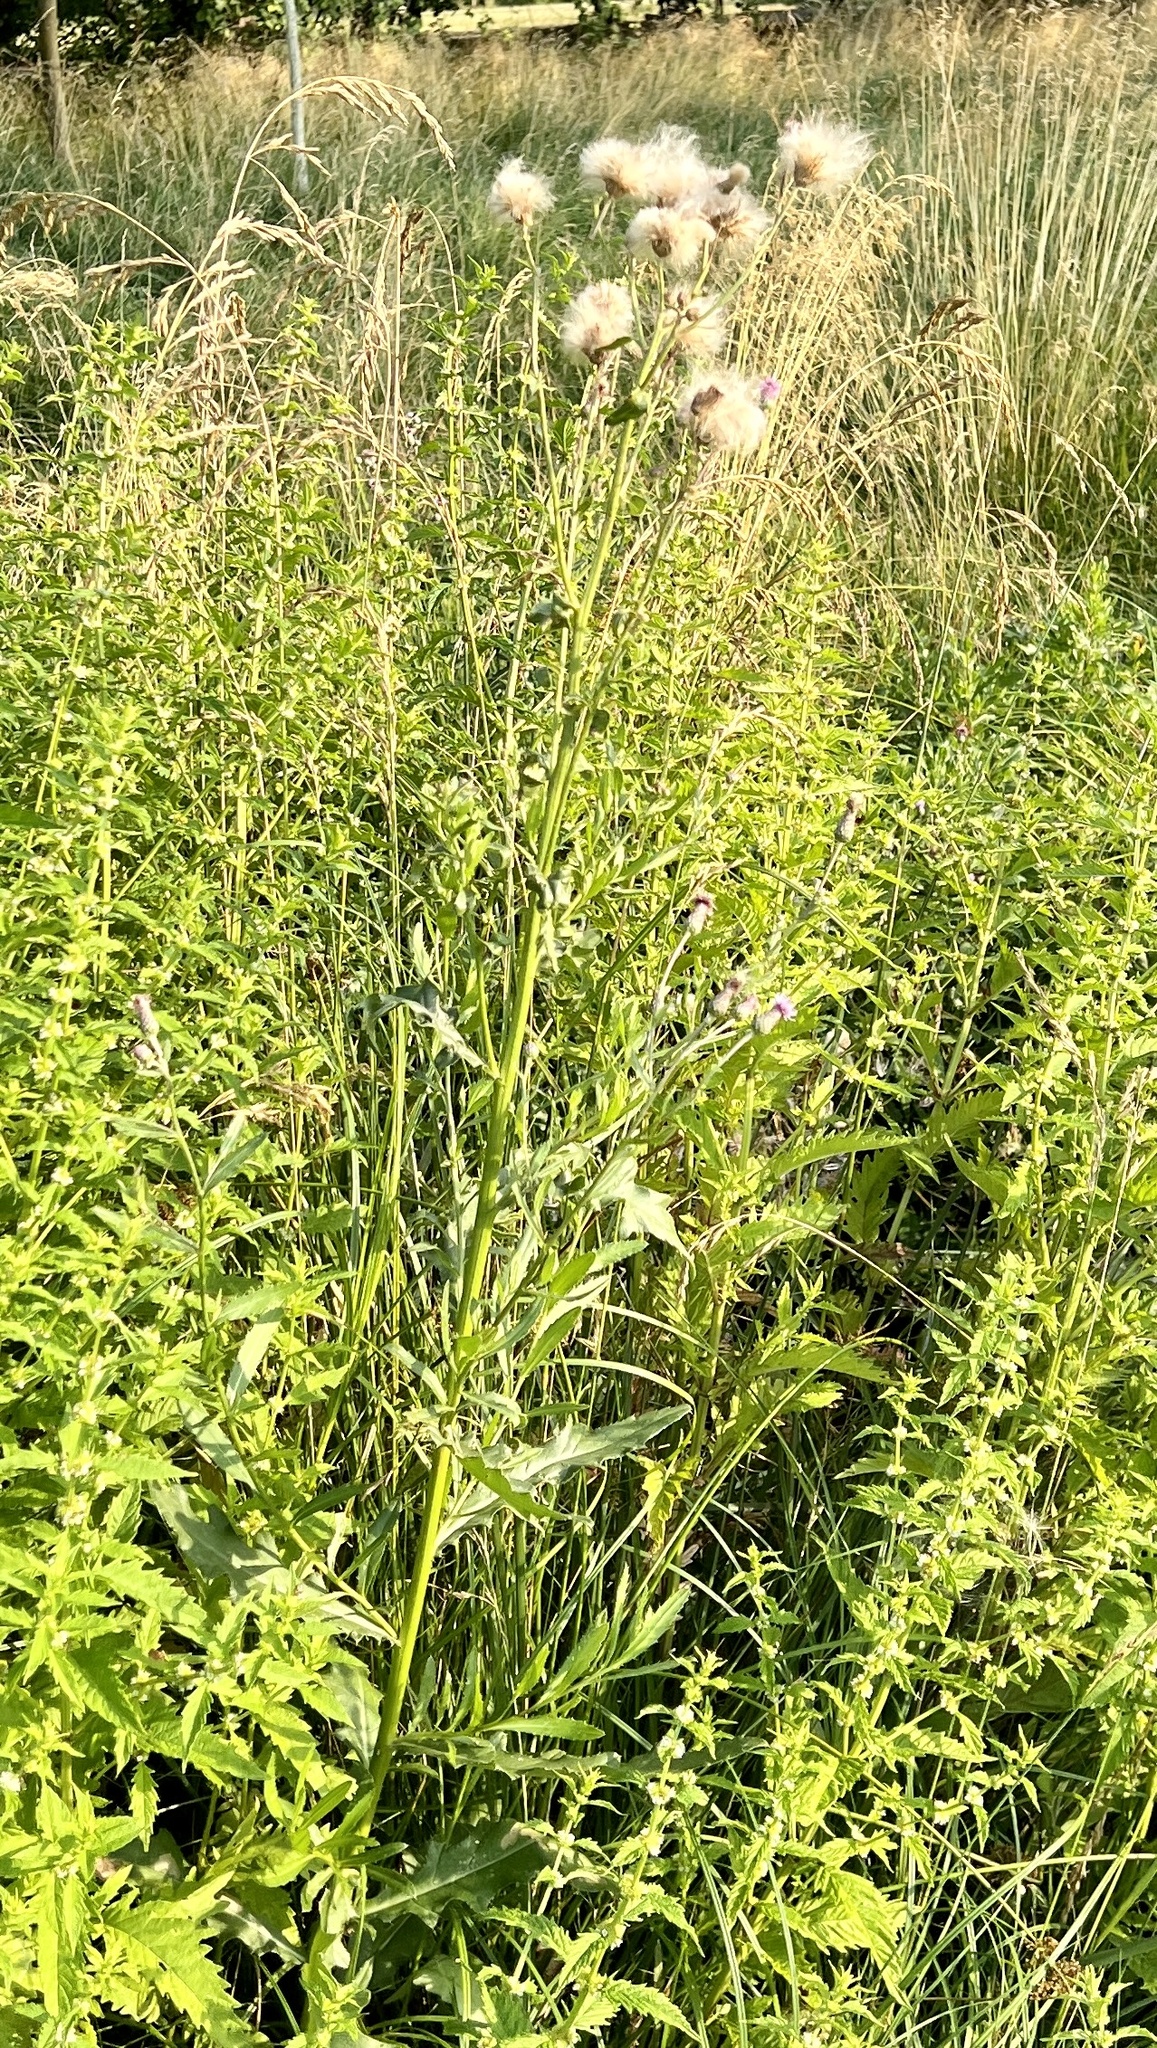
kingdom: Plantae
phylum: Tracheophyta
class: Magnoliopsida
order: Asterales
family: Asteraceae
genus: Cirsium
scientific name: Cirsium arvense
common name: Creeping thistle
